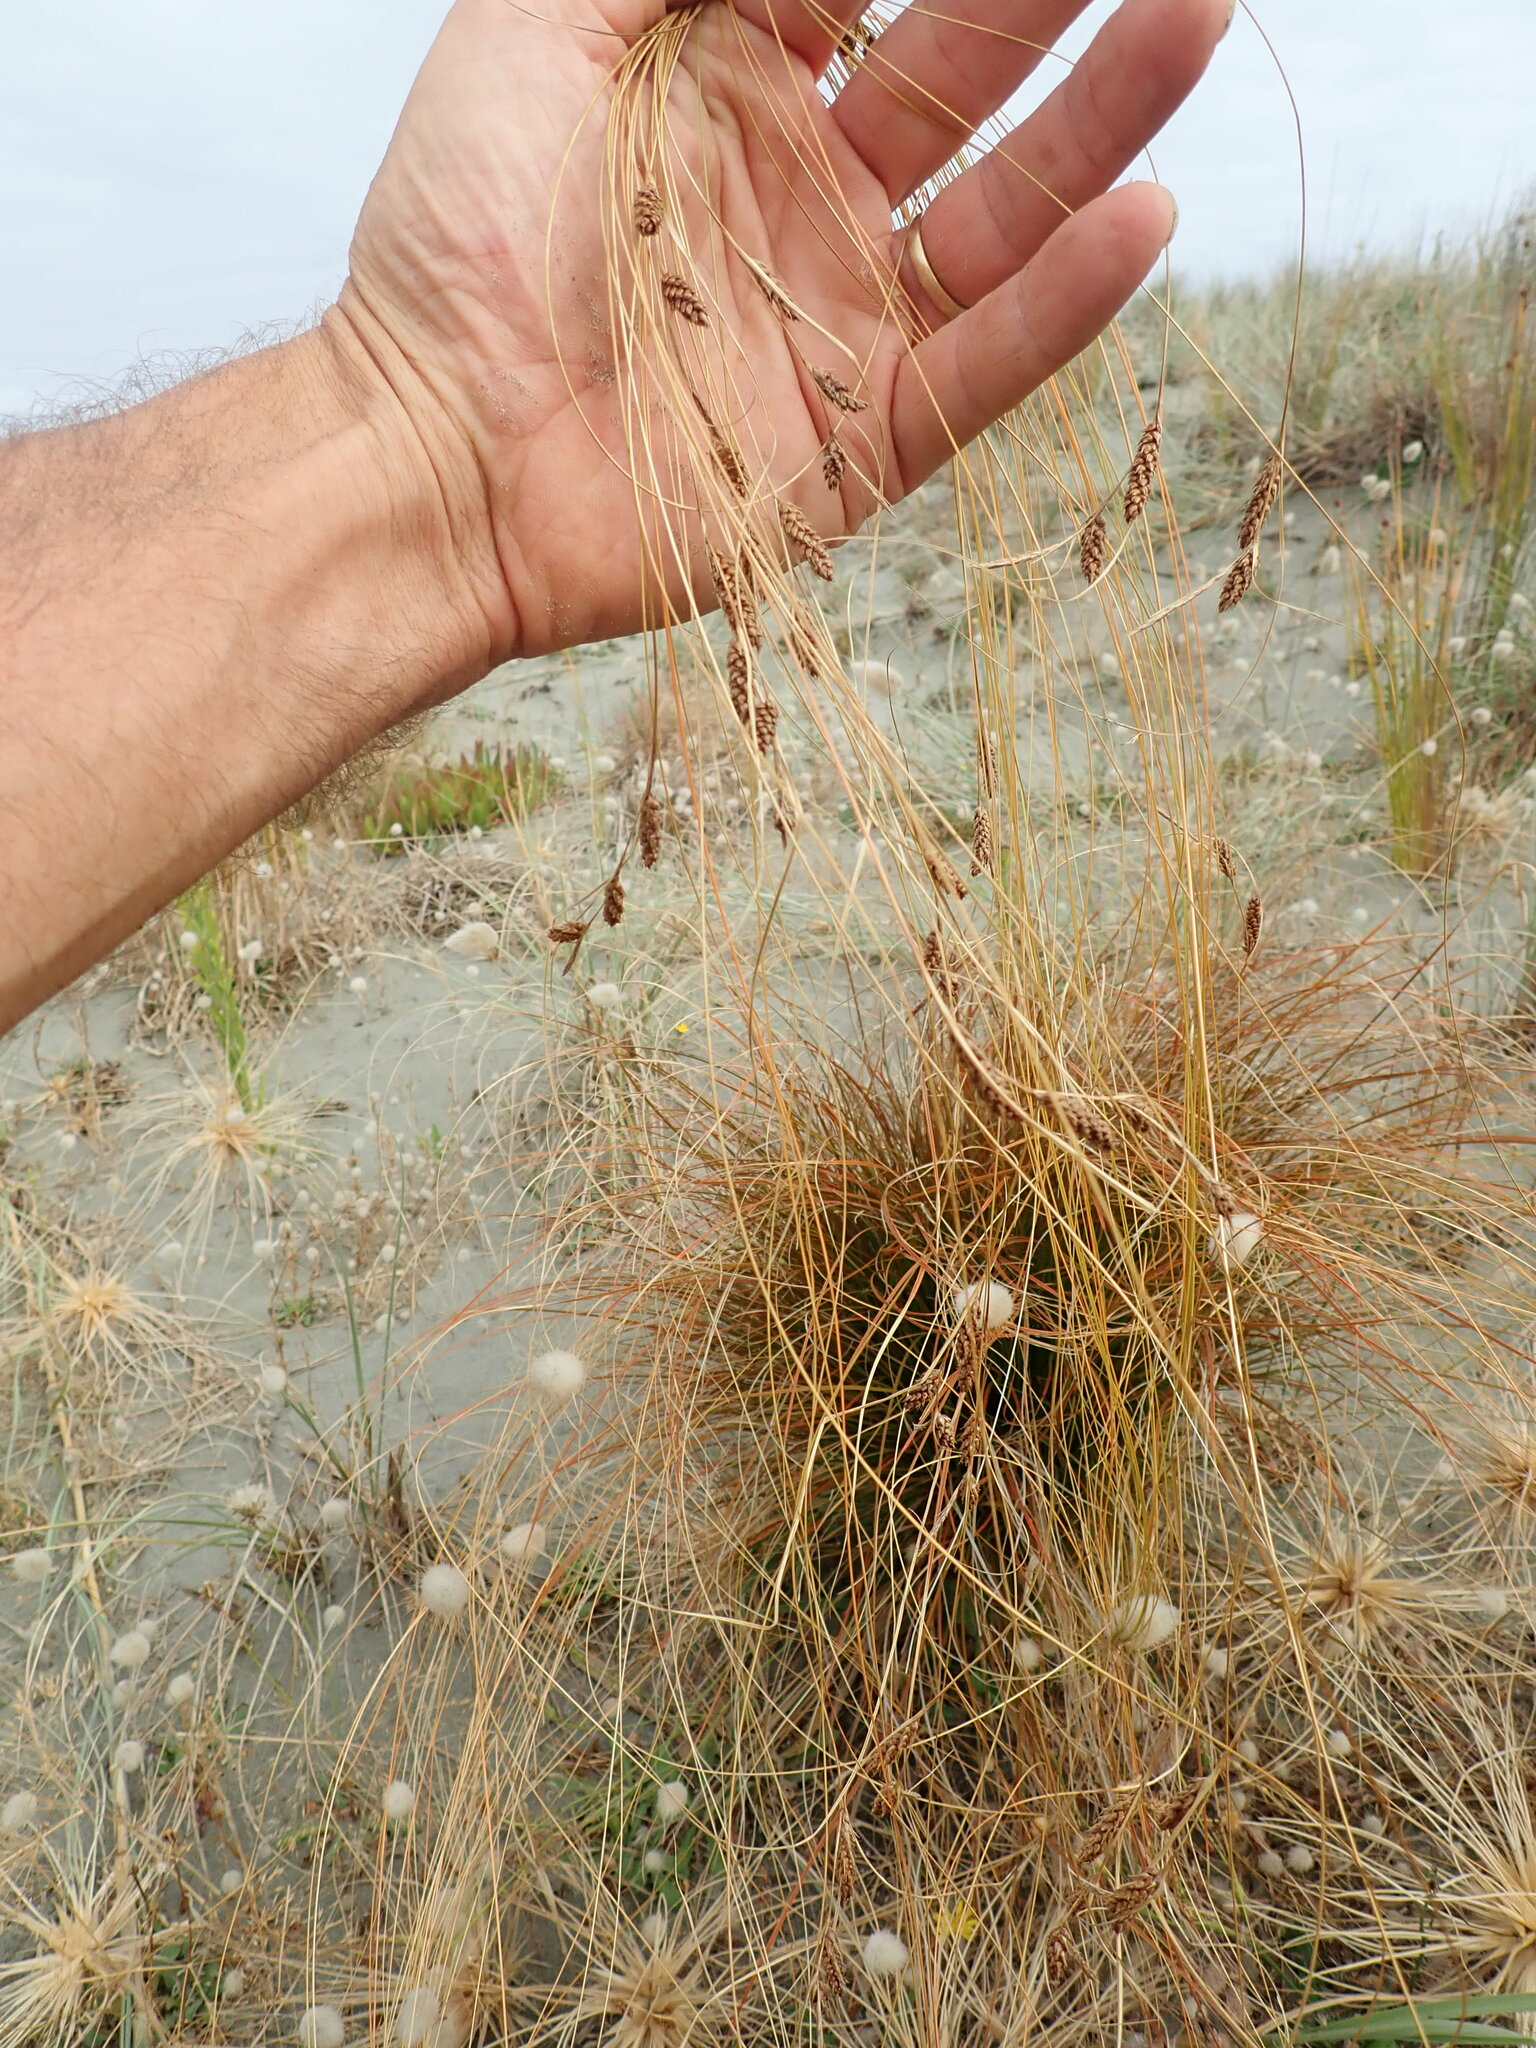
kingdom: Plantae
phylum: Tracheophyta
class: Liliopsida
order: Poales
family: Cyperaceae
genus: Carex
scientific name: Carex testacea
